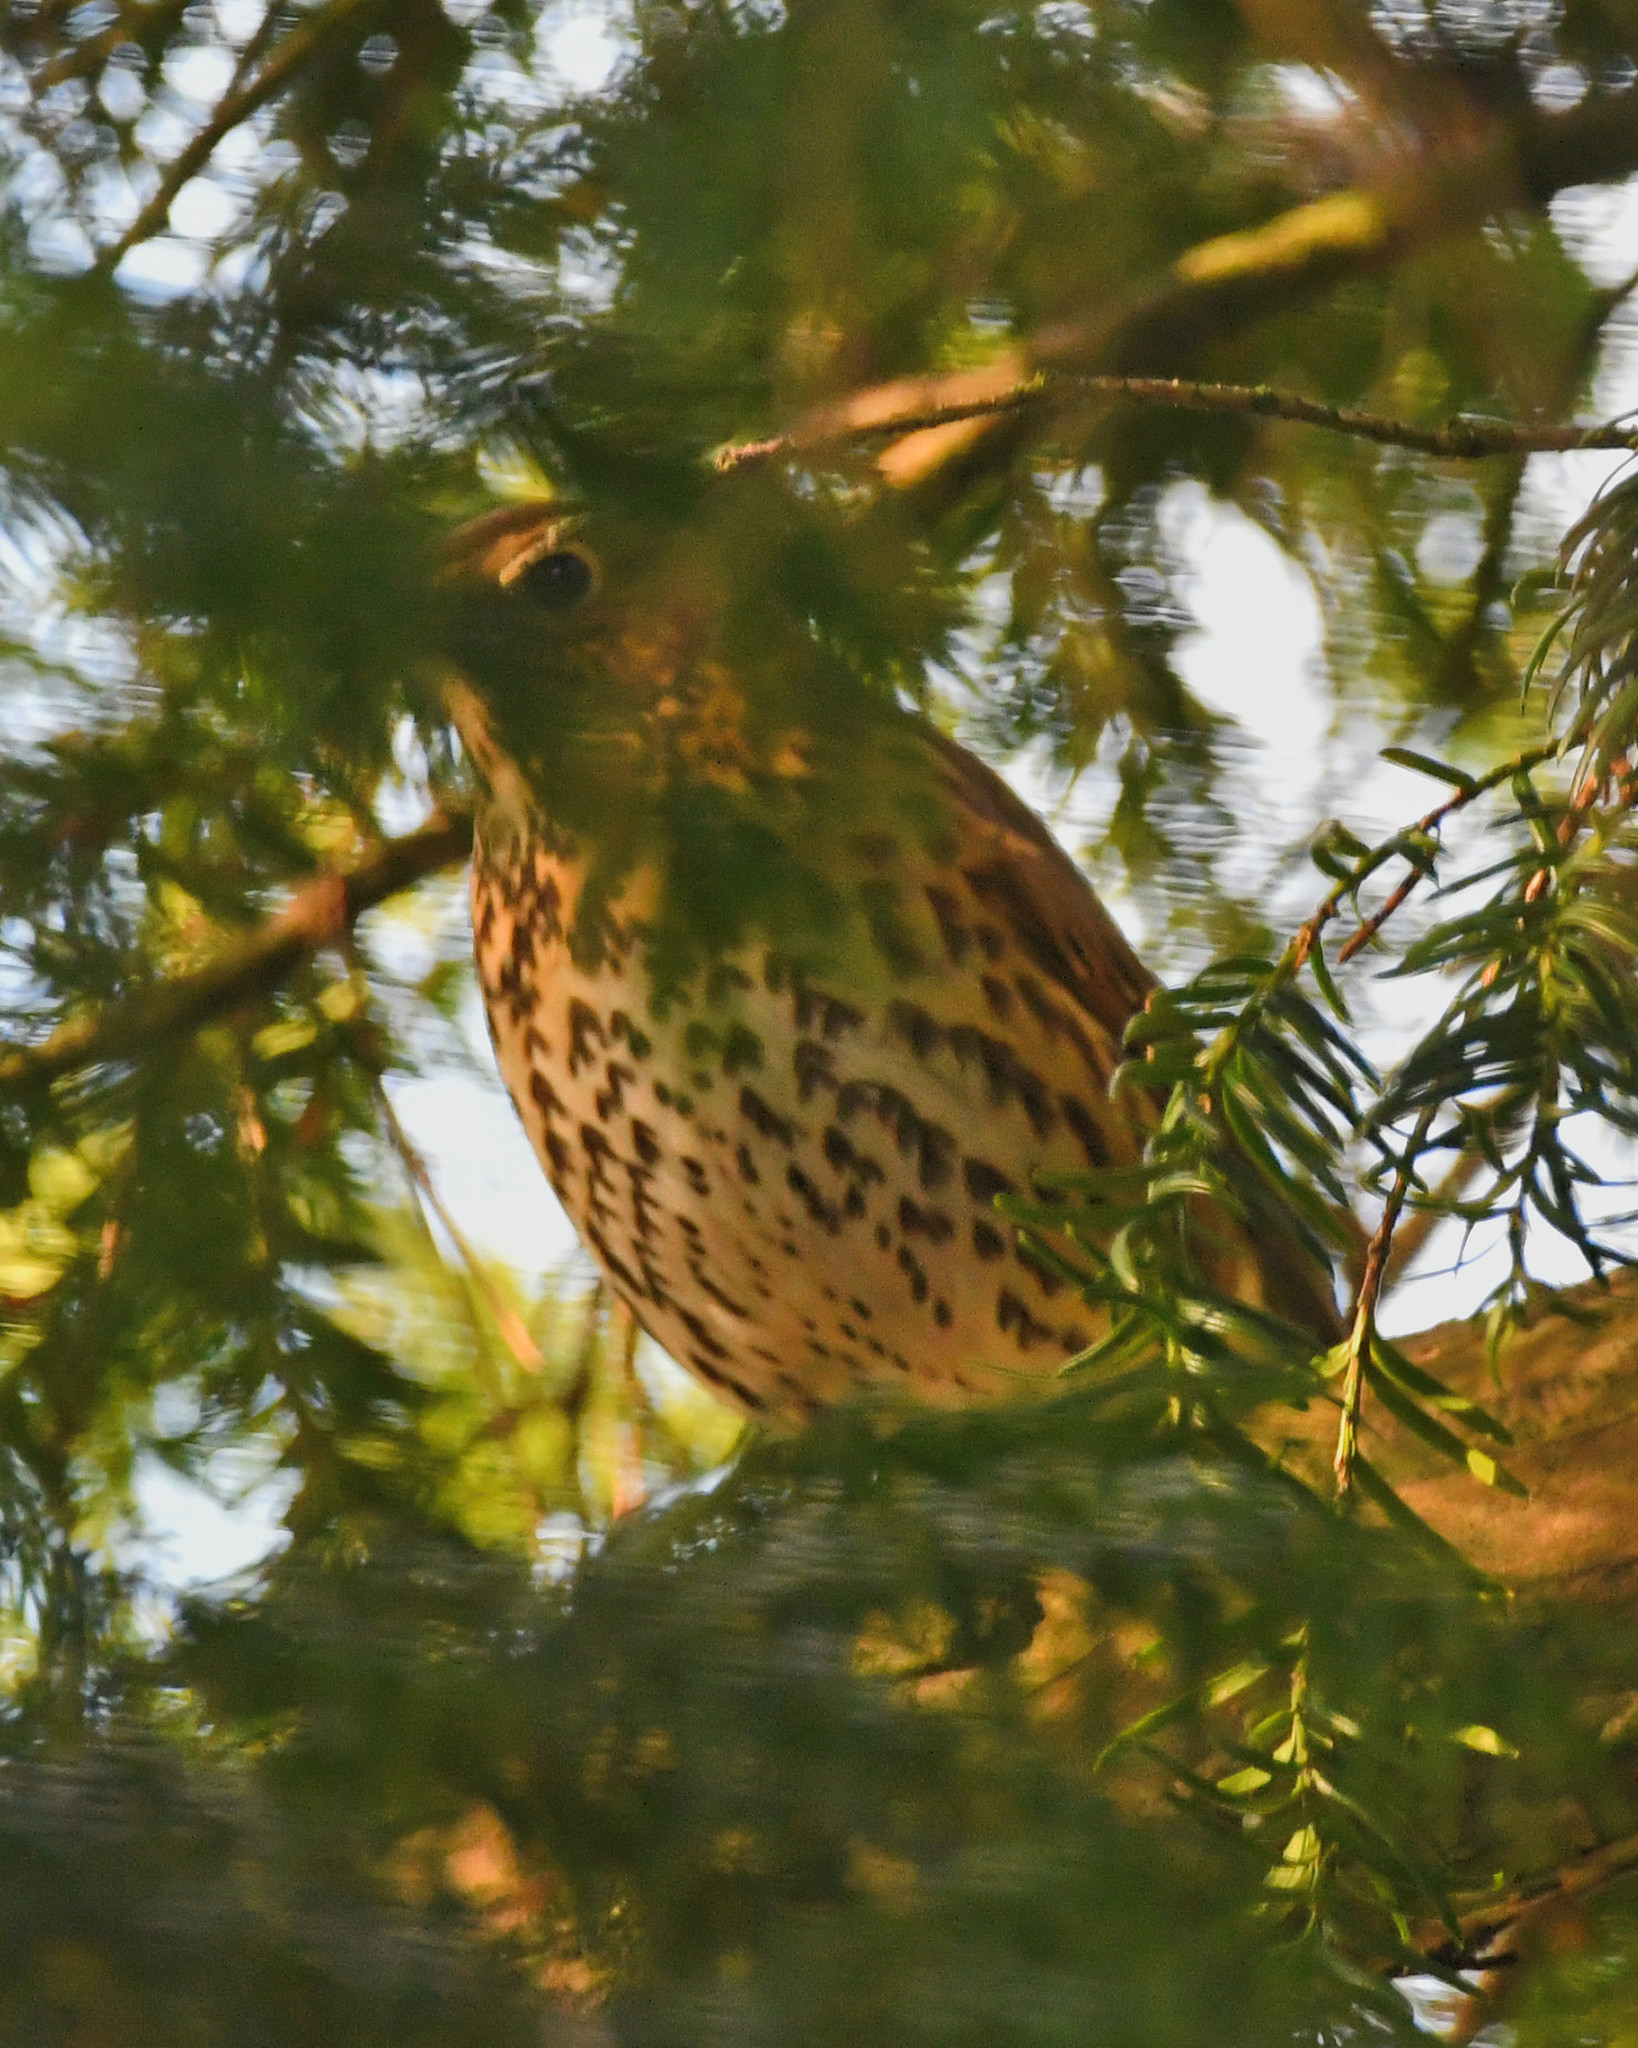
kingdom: Animalia
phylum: Chordata
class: Aves
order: Passeriformes
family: Turdidae
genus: Turdus
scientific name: Turdus philomelos
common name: Song thrush
